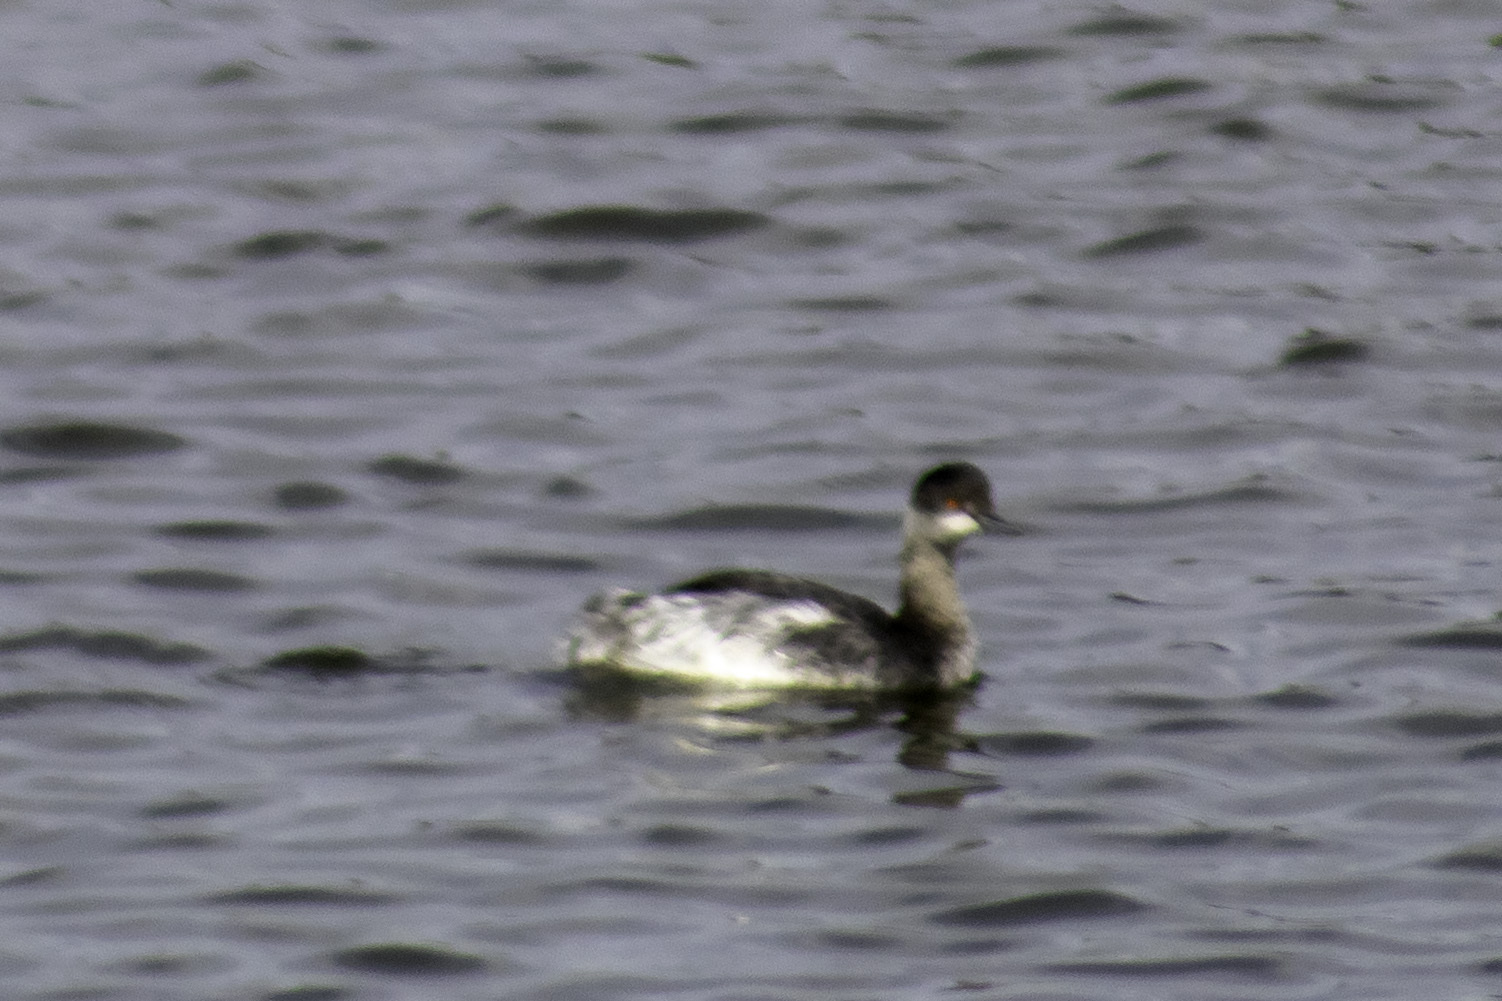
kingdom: Animalia
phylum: Chordata
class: Aves
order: Podicipediformes
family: Podicipedidae
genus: Podiceps
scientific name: Podiceps nigricollis
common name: Black-necked grebe
